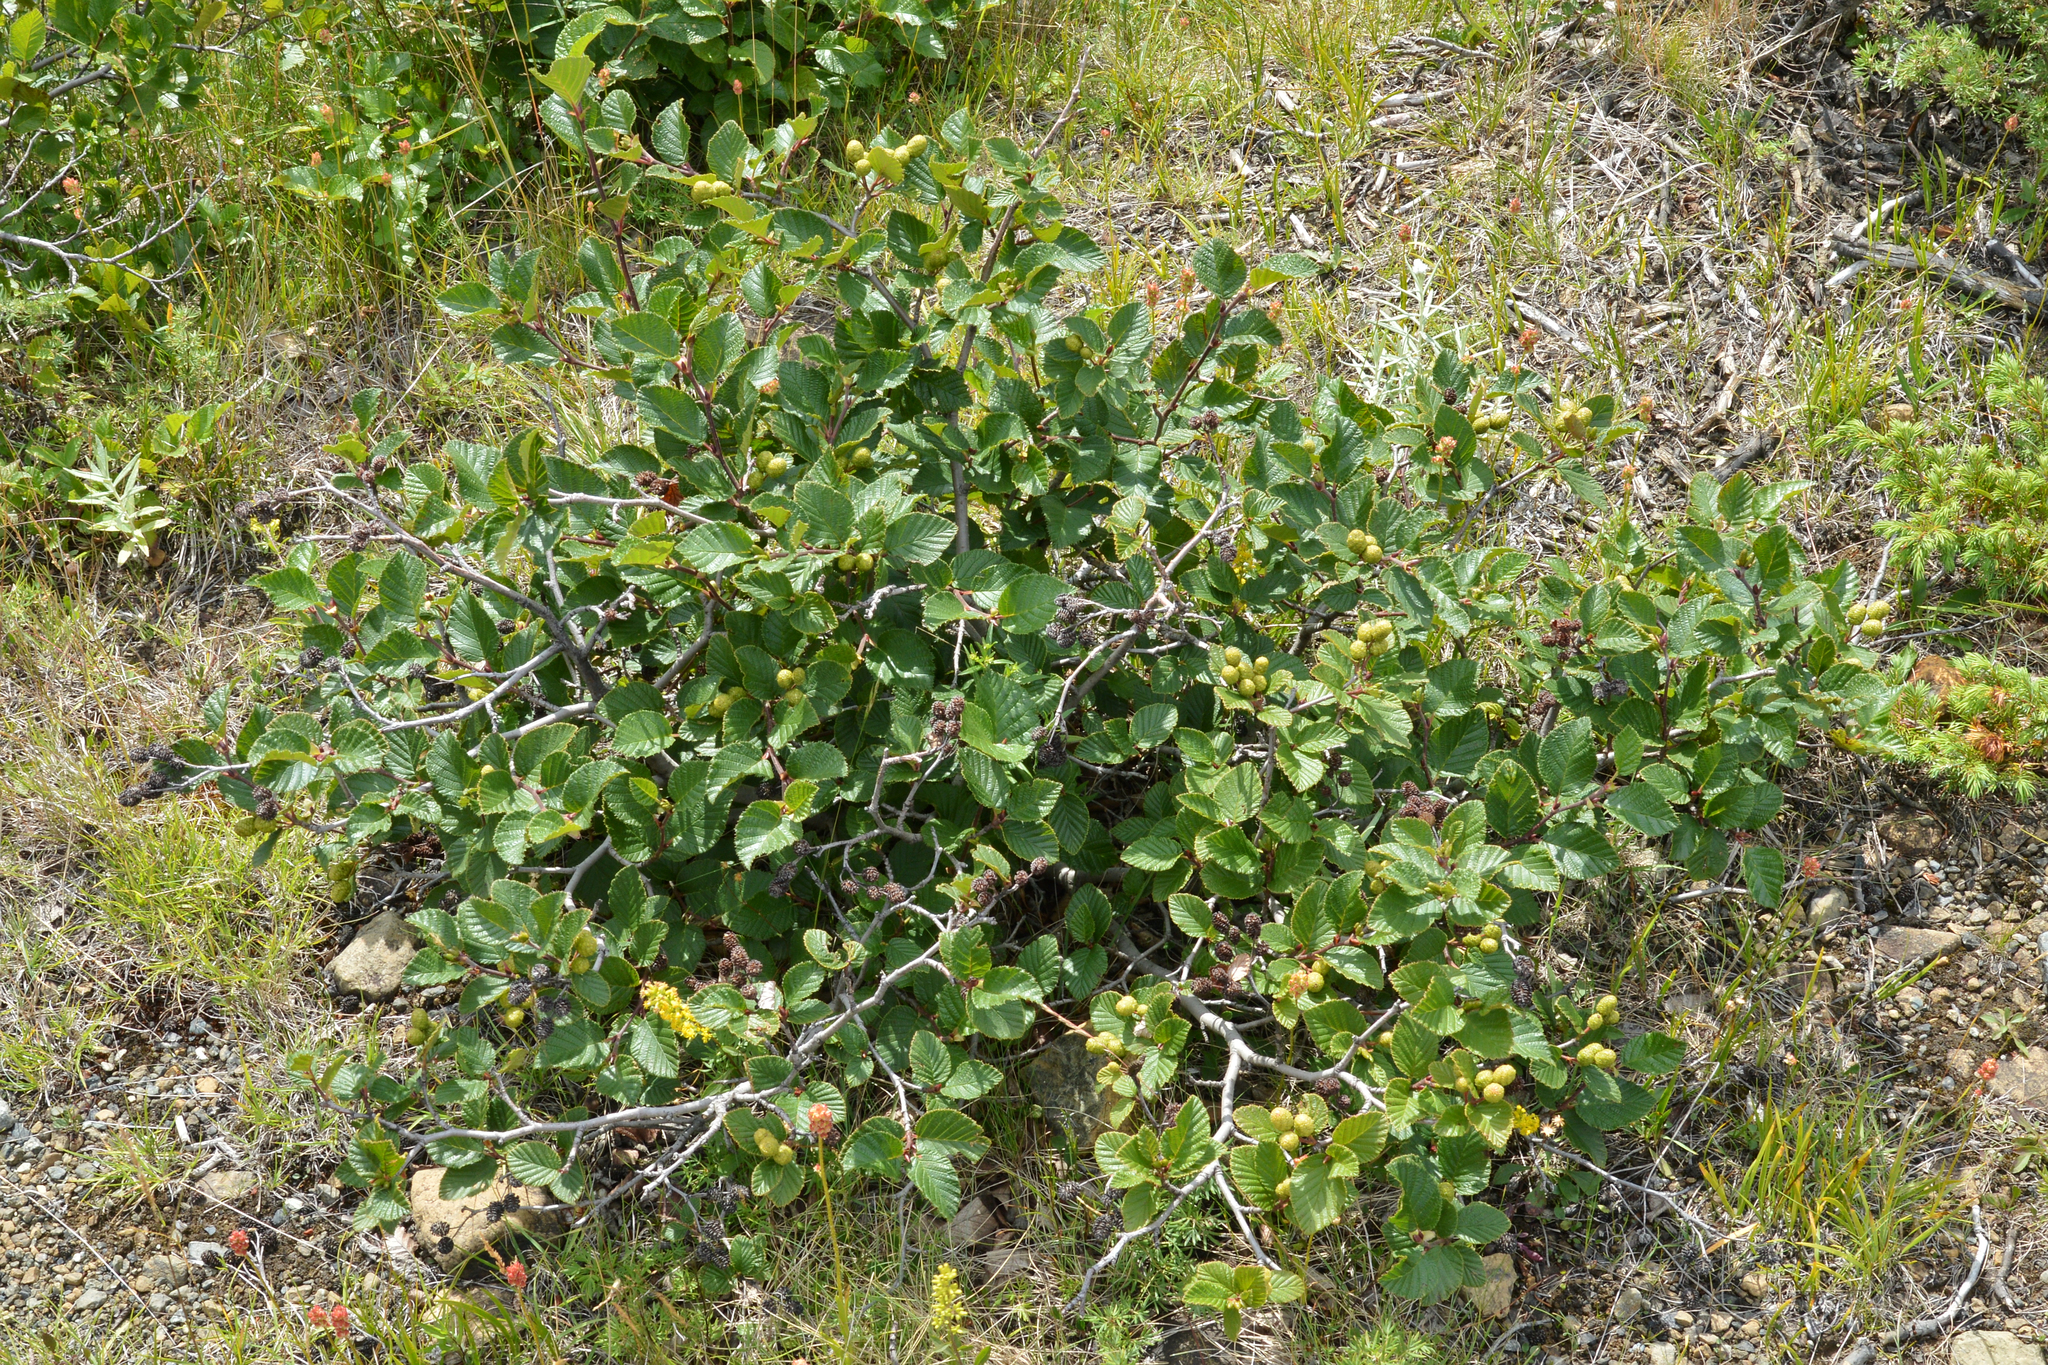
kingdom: Plantae
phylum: Tracheophyta
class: Magnoliopsida
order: Fagales
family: Betulaceae
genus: Alnus
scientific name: Alnus alnobetula
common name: Green alder
